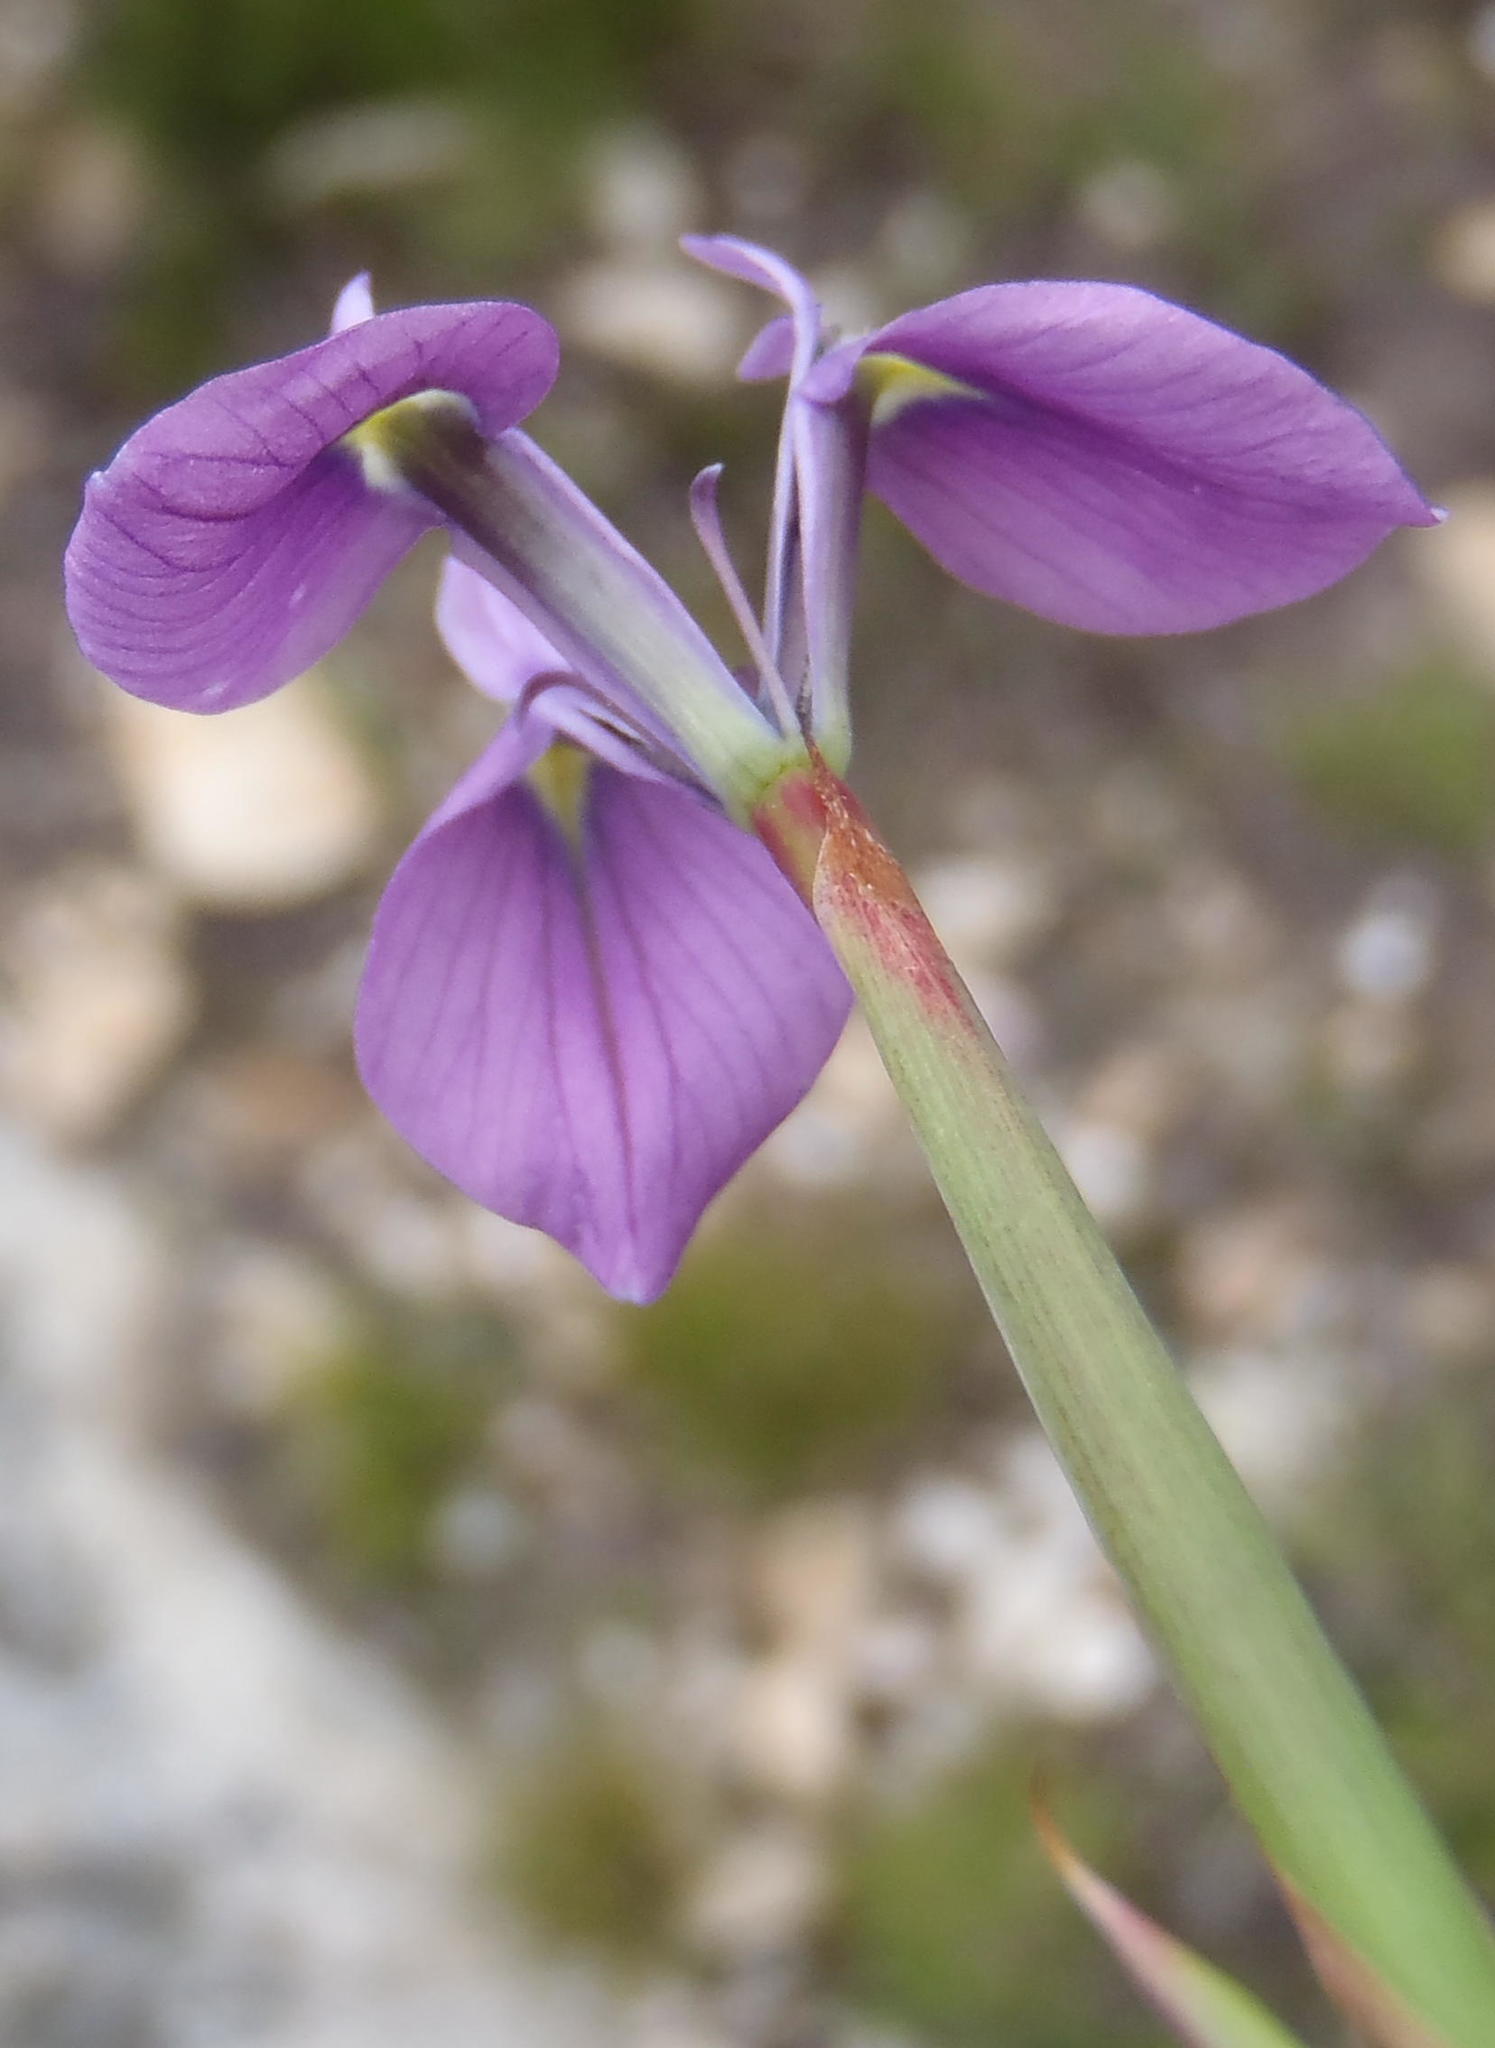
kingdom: Plantae
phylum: Tracheophyta
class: Liliopsida
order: Asparagales
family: Iridaceae
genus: Moraea
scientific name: Moraea tripetala
